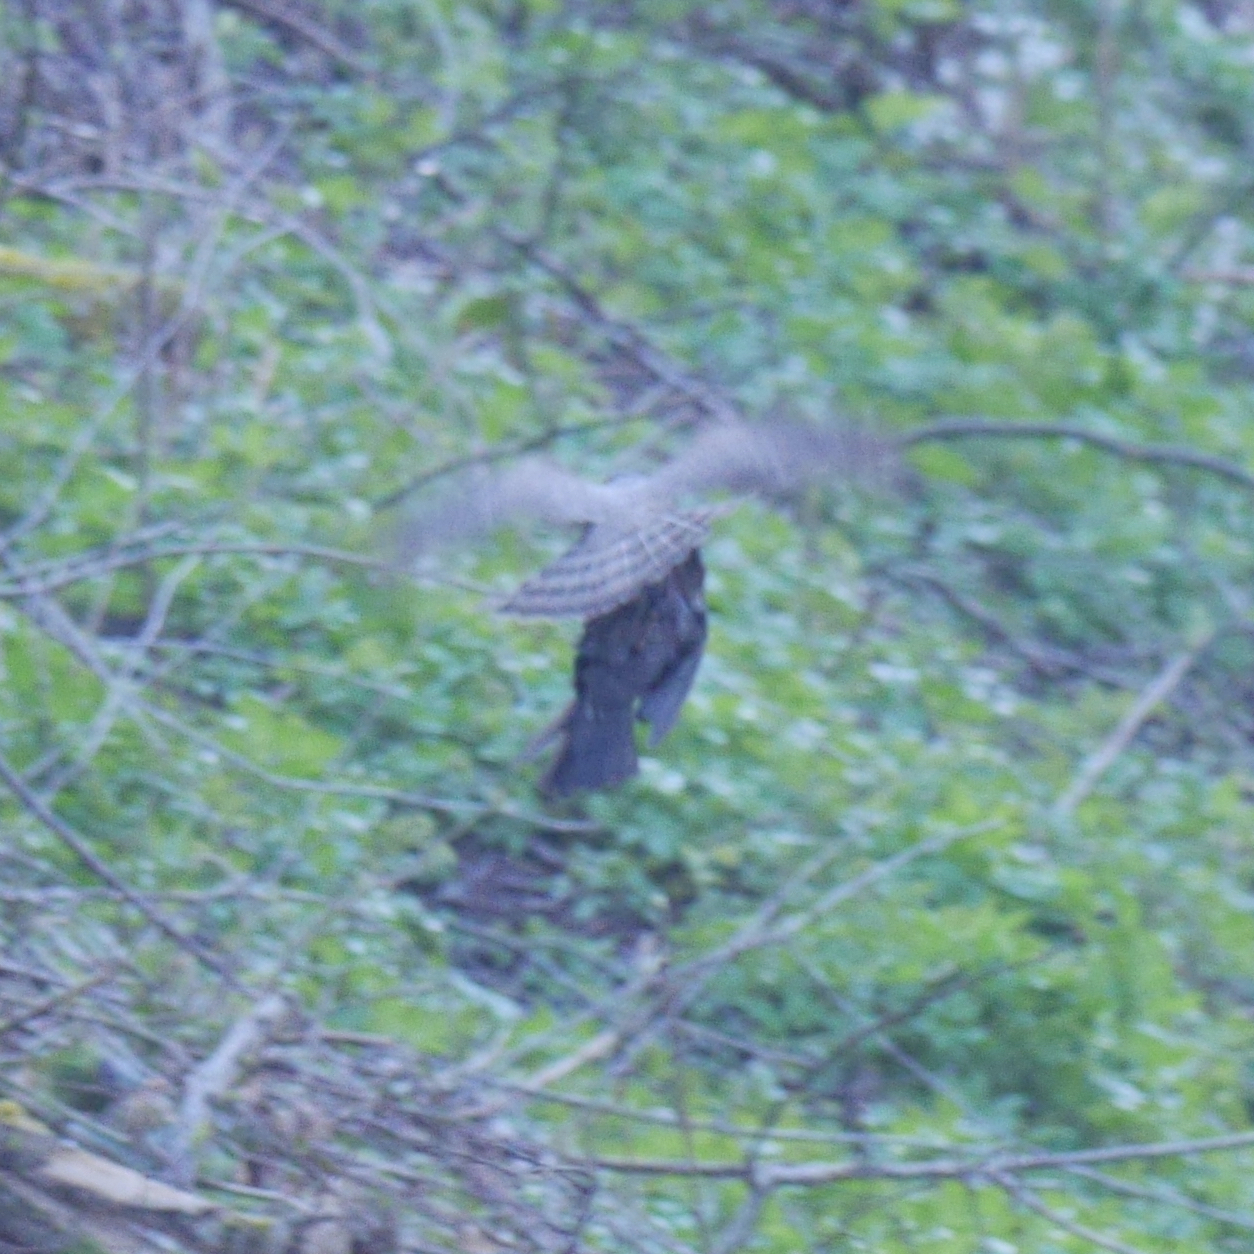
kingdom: Animalia
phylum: Chordata
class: Aves
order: Accipitriformes
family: Accipitridae
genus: Accipiter
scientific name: Accipiter nisus
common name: Eurasian sparrowhawk
